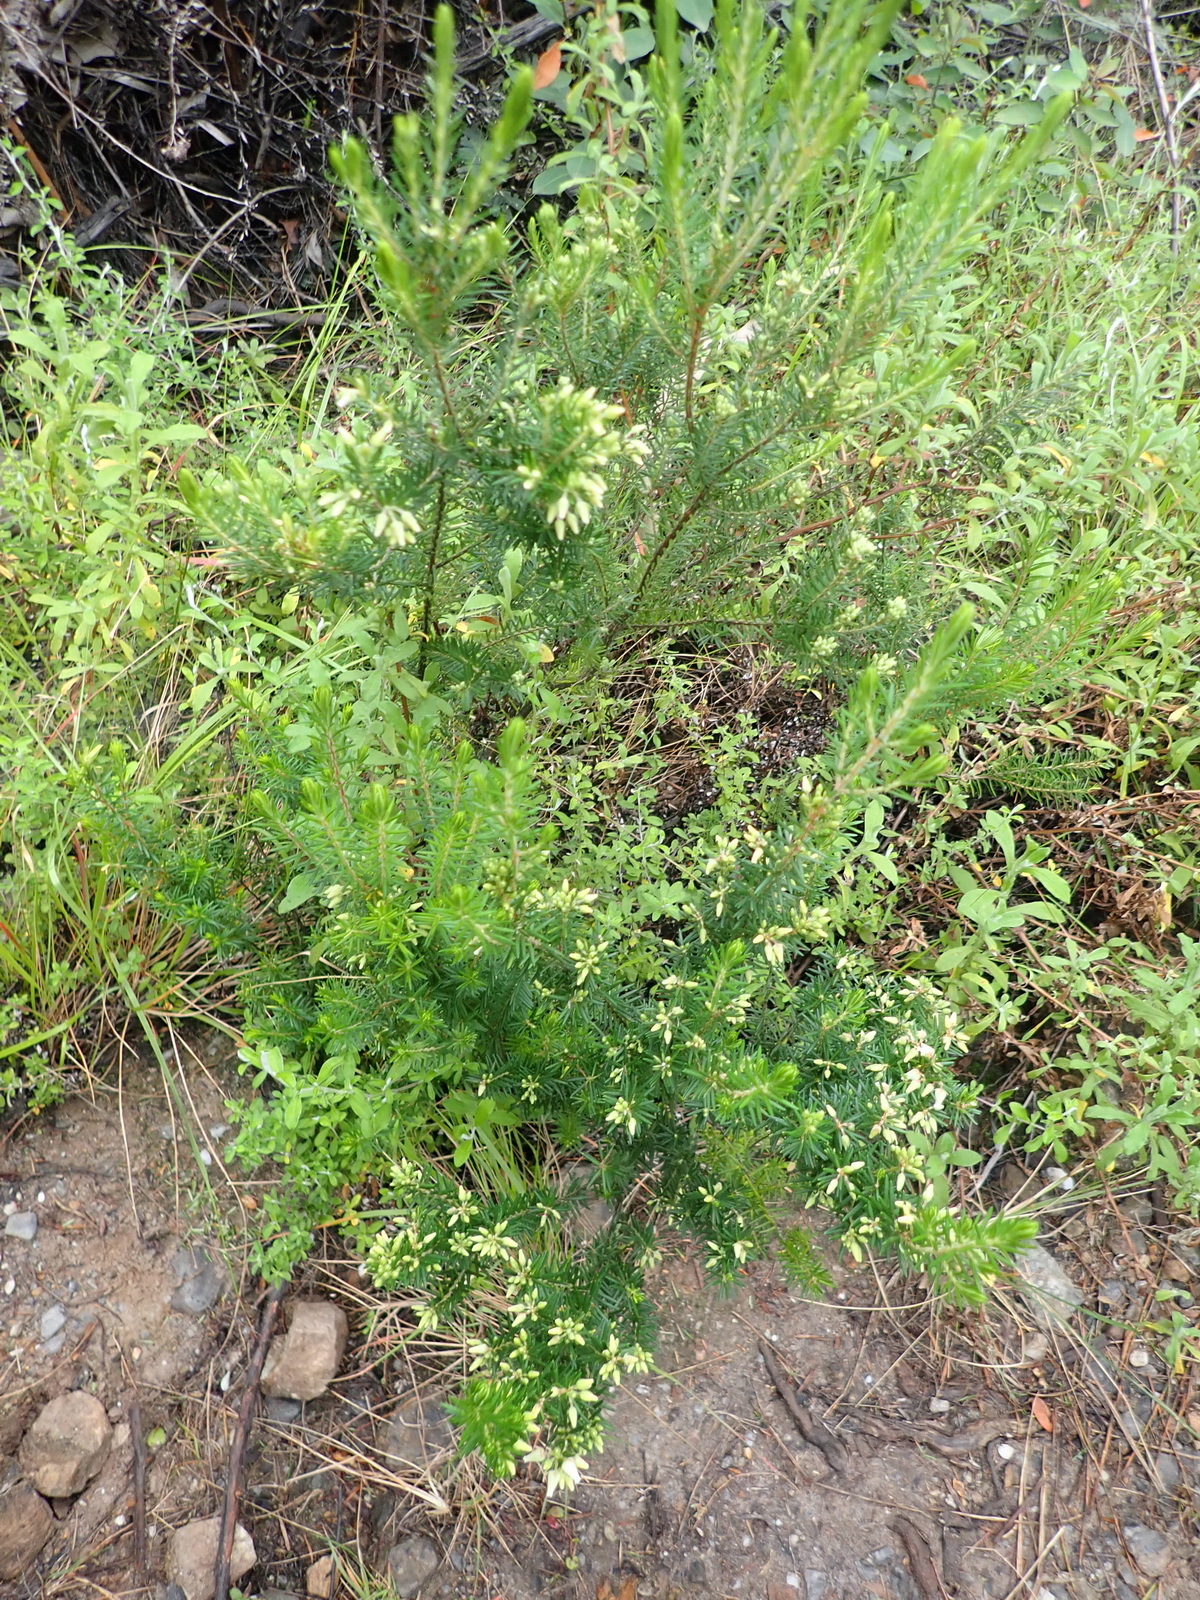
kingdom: Plantae
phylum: Tracheophyta
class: Magnoliopsida
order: Ericales
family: Ericaceae
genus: Erica
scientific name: Erica caffra
